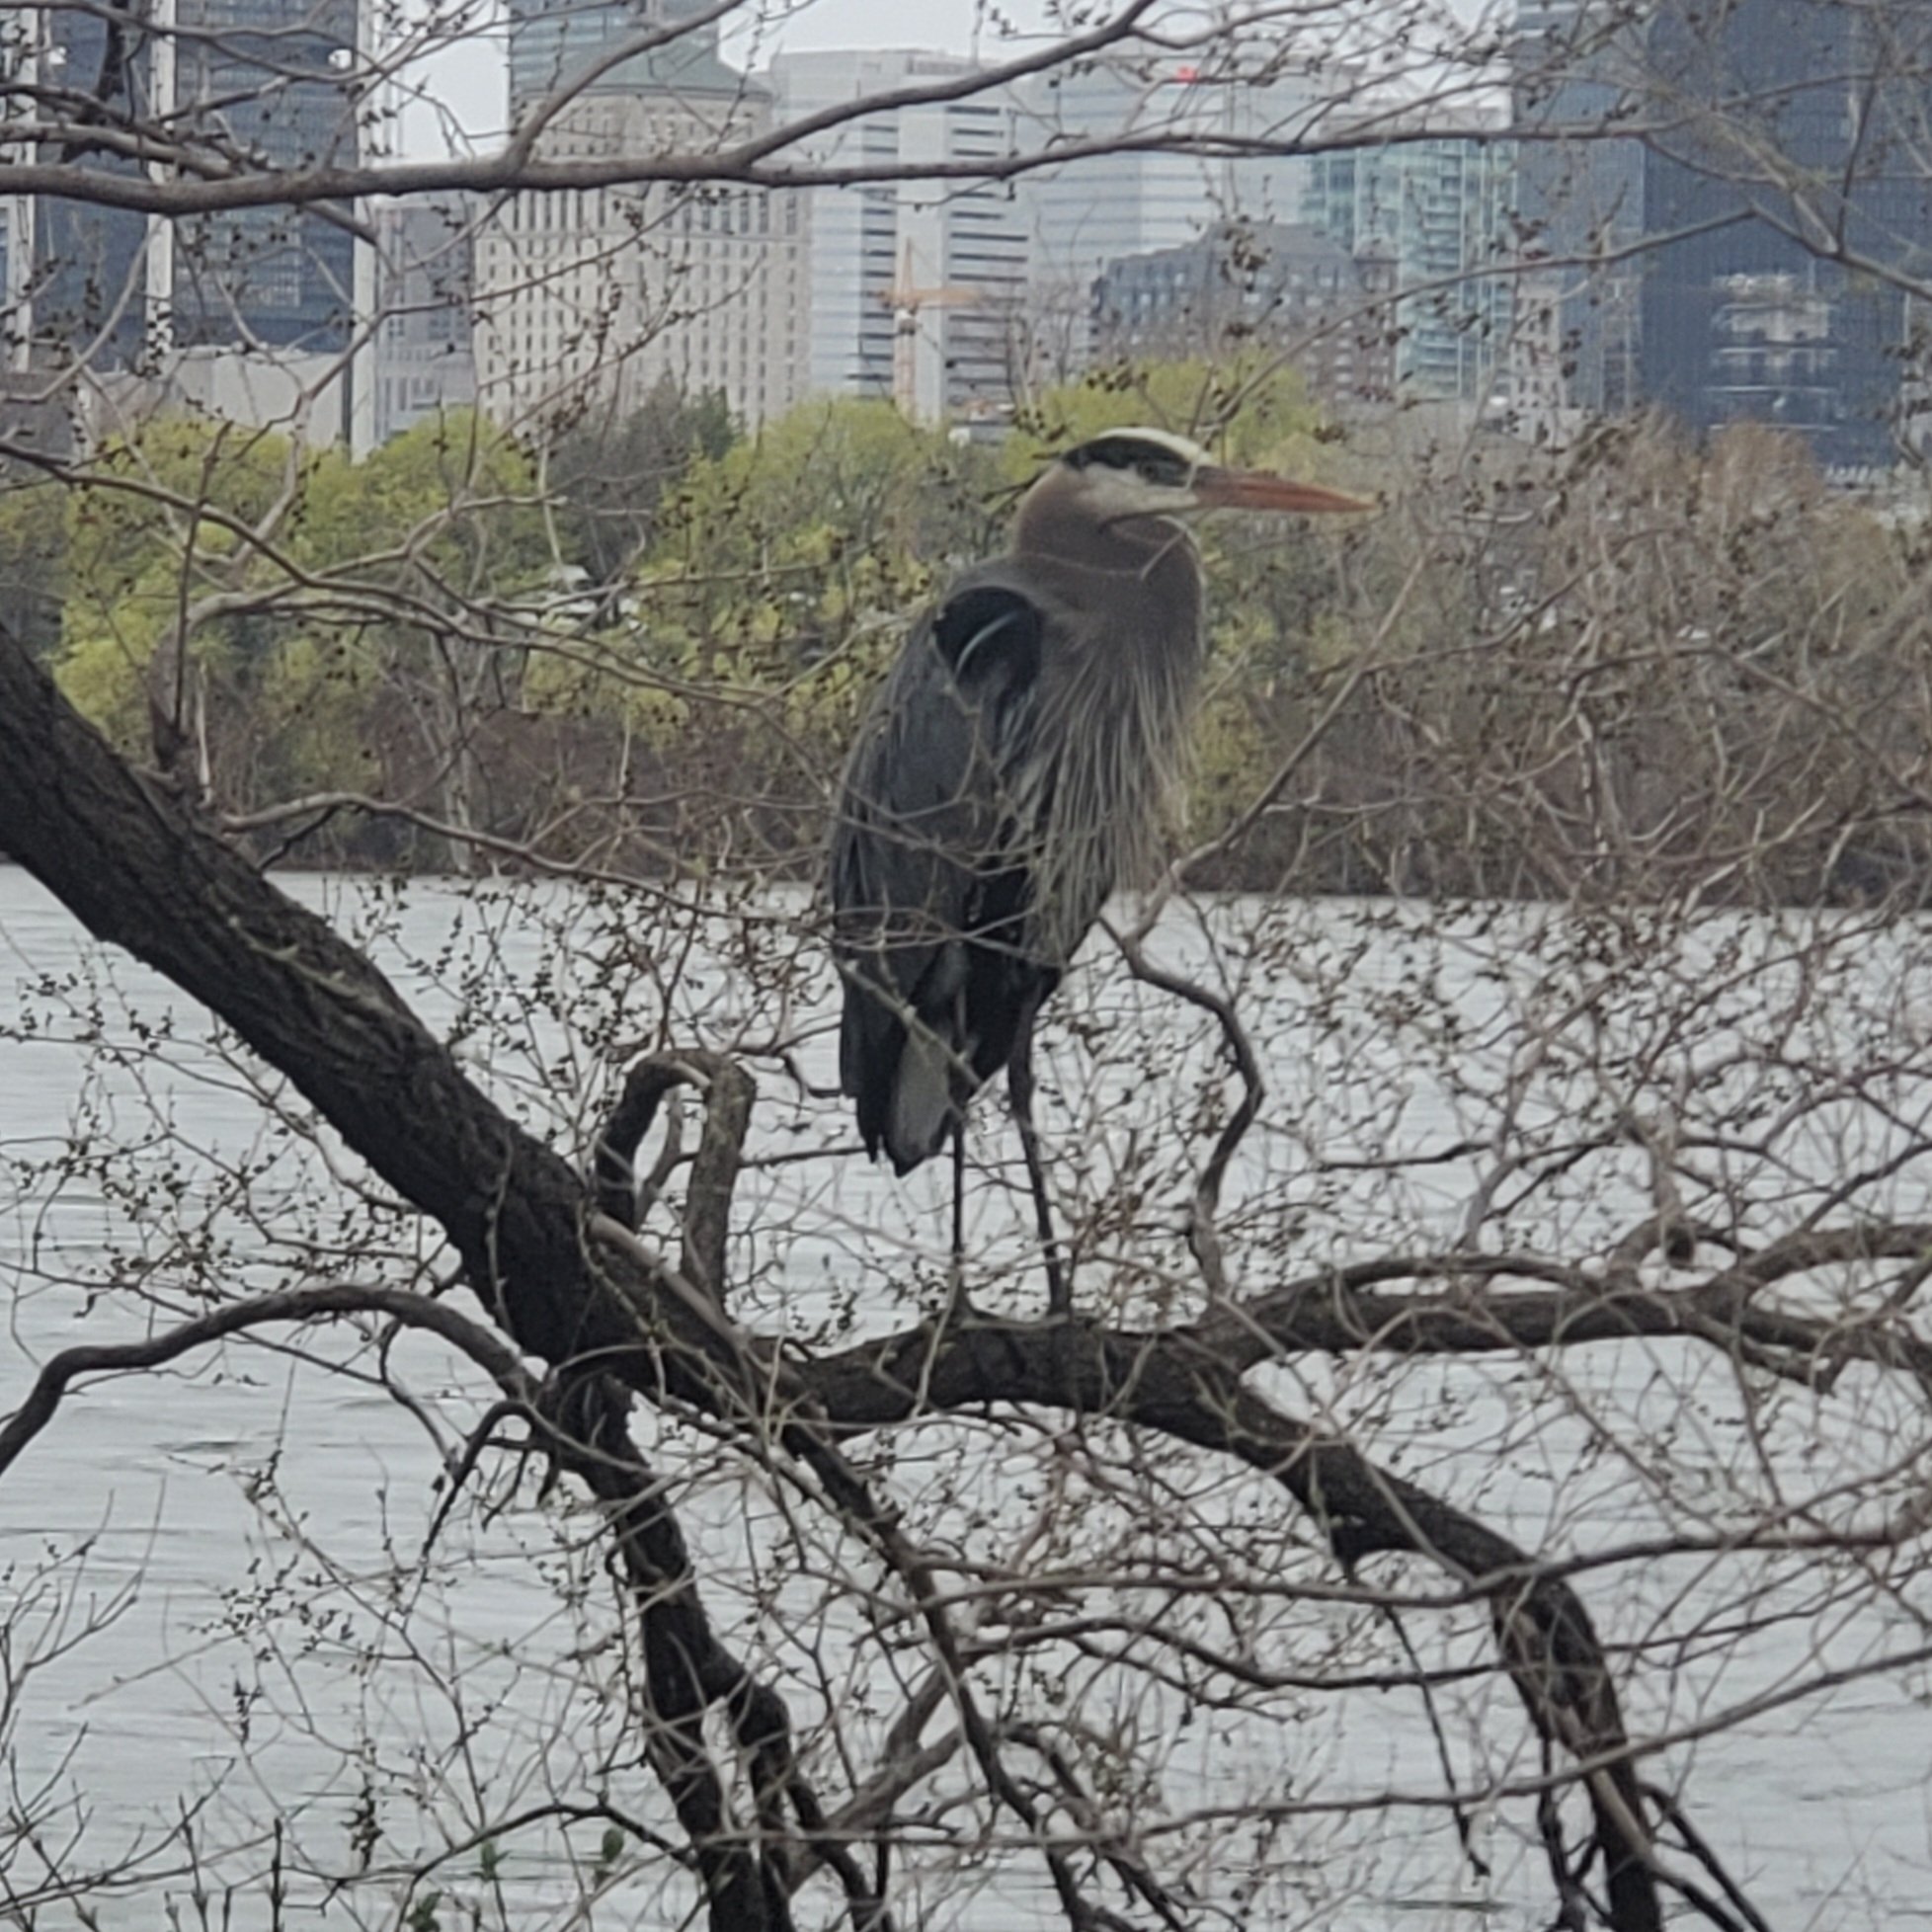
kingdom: Animalia
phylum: Chordata
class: Aves
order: Pelecaniformes
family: Ardeidae
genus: Ardea
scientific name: Ardea herodias
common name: Great blue heron
